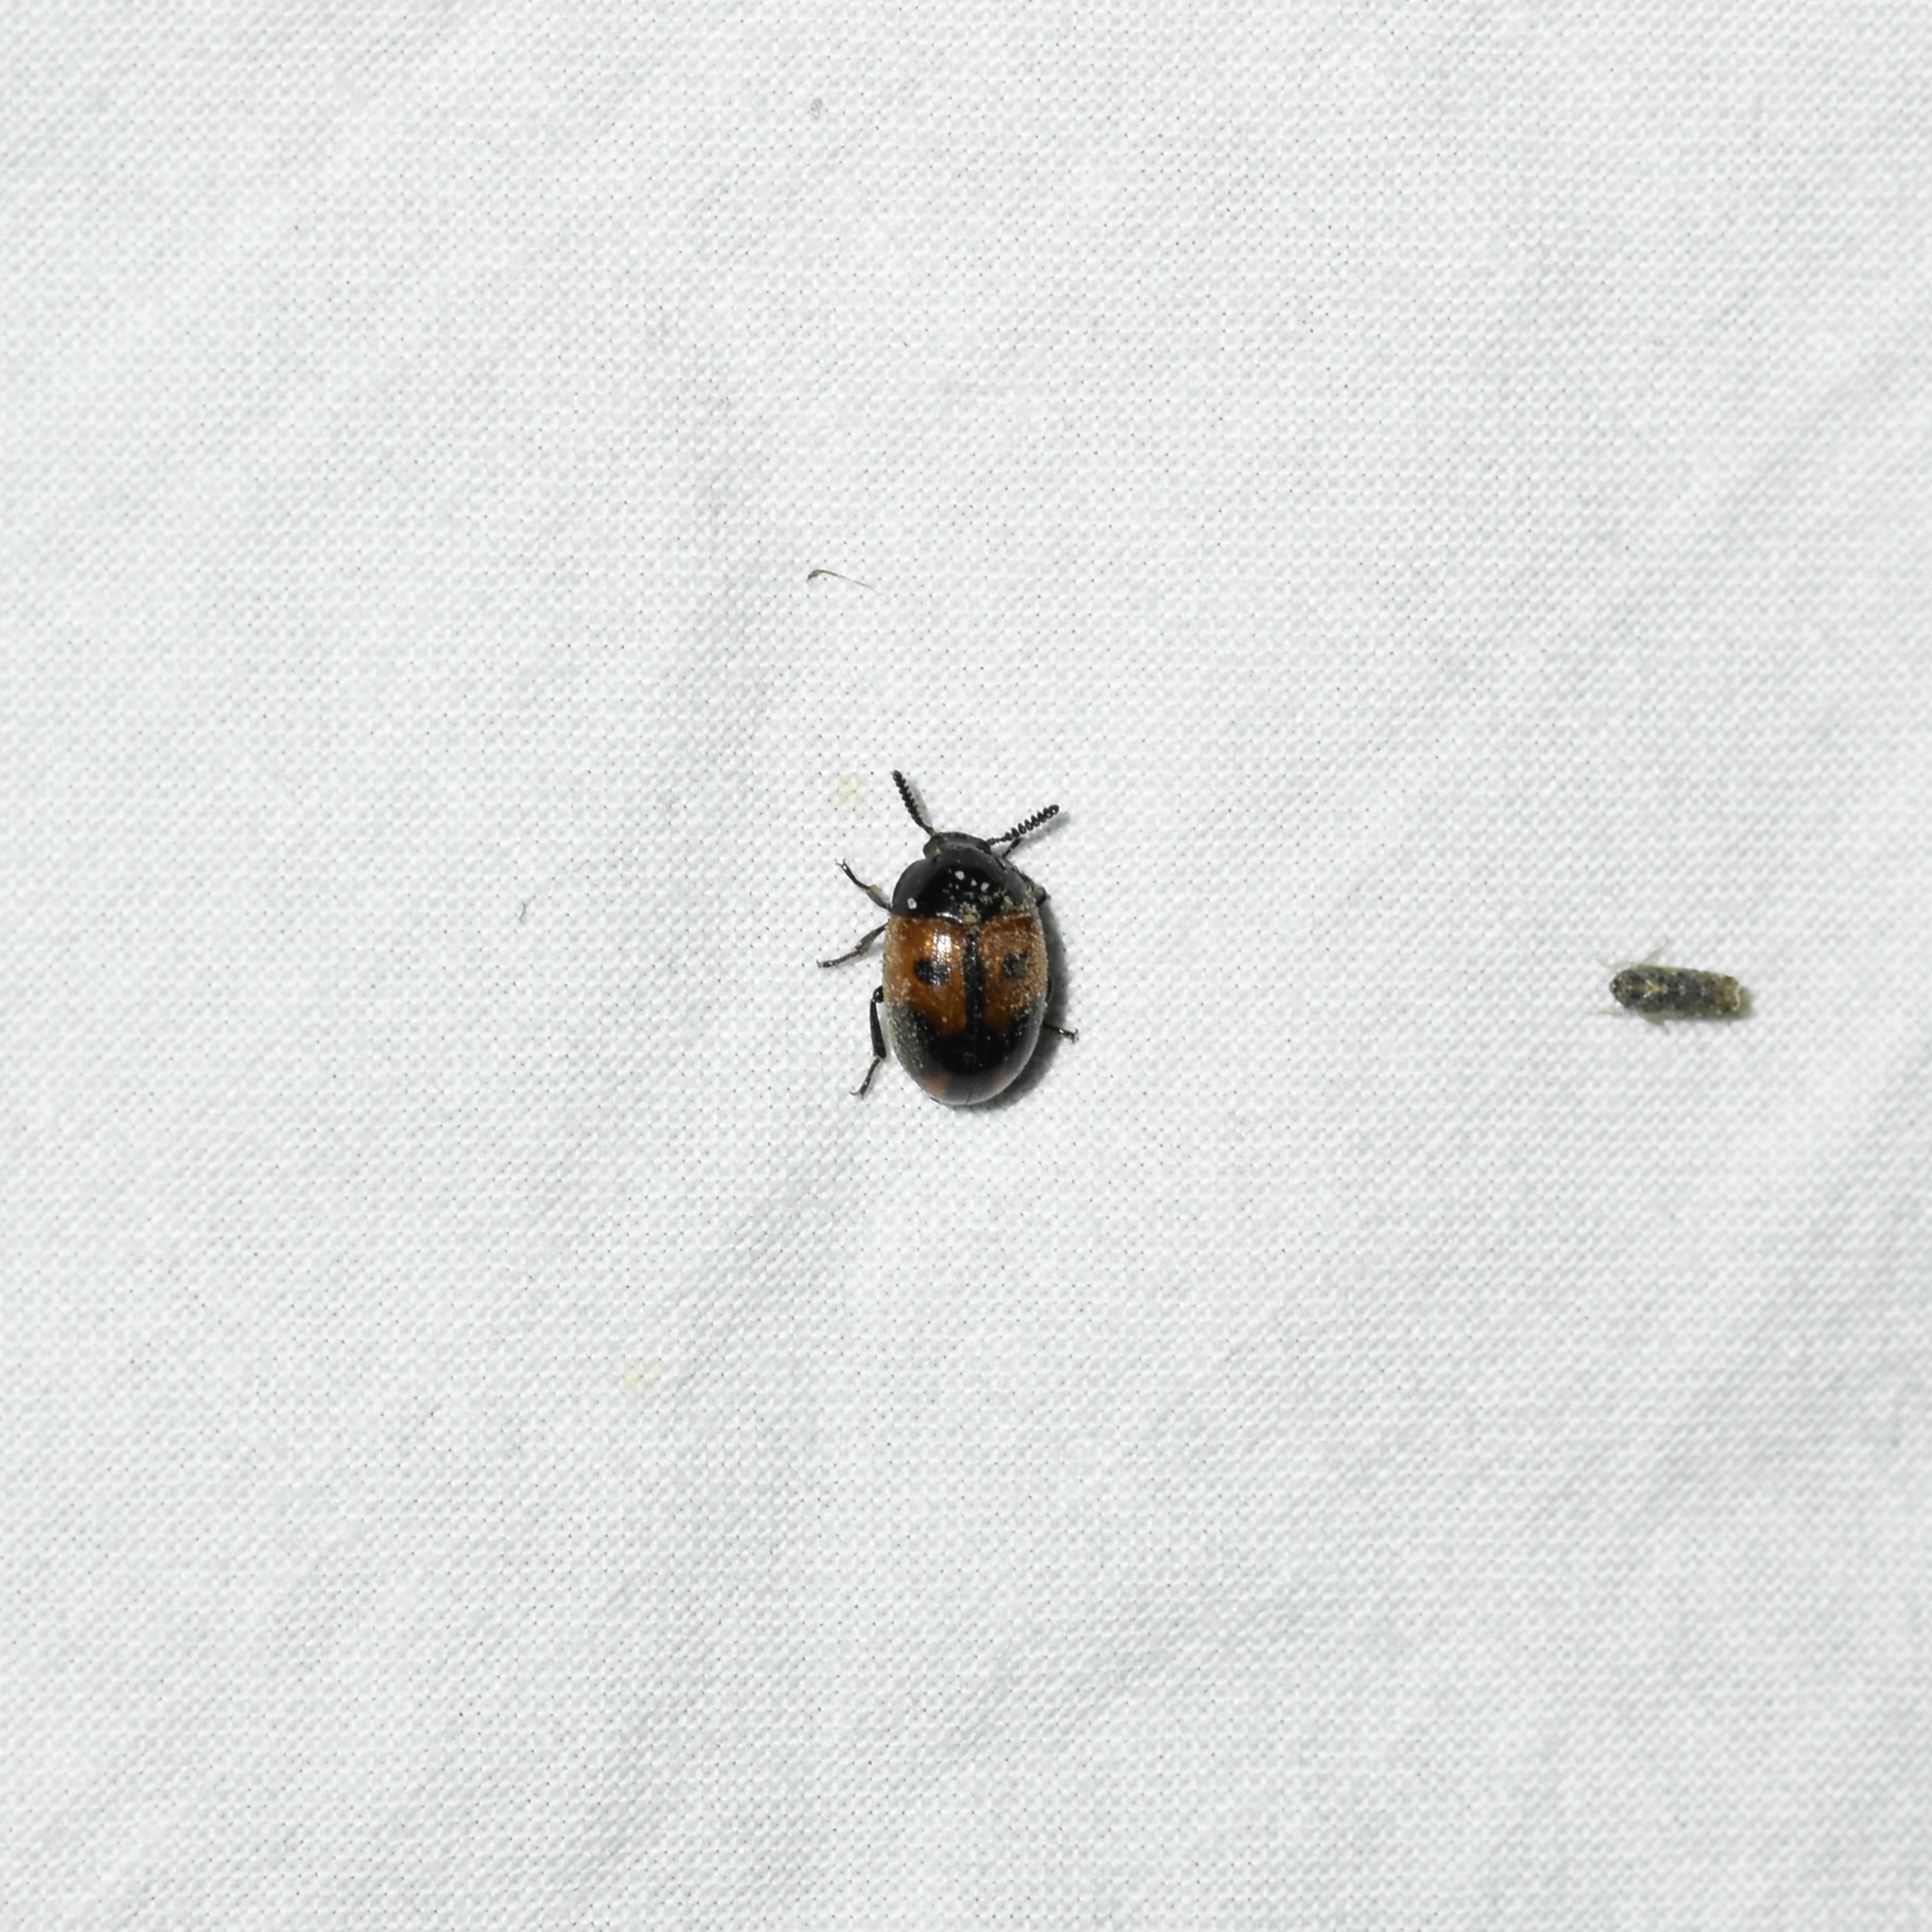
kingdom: Animalia
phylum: Arthropoda
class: Insecta
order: Coleoptera
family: Tenebrionidae
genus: Diaperis
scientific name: Diaperis maculata
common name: Darkling beetle
